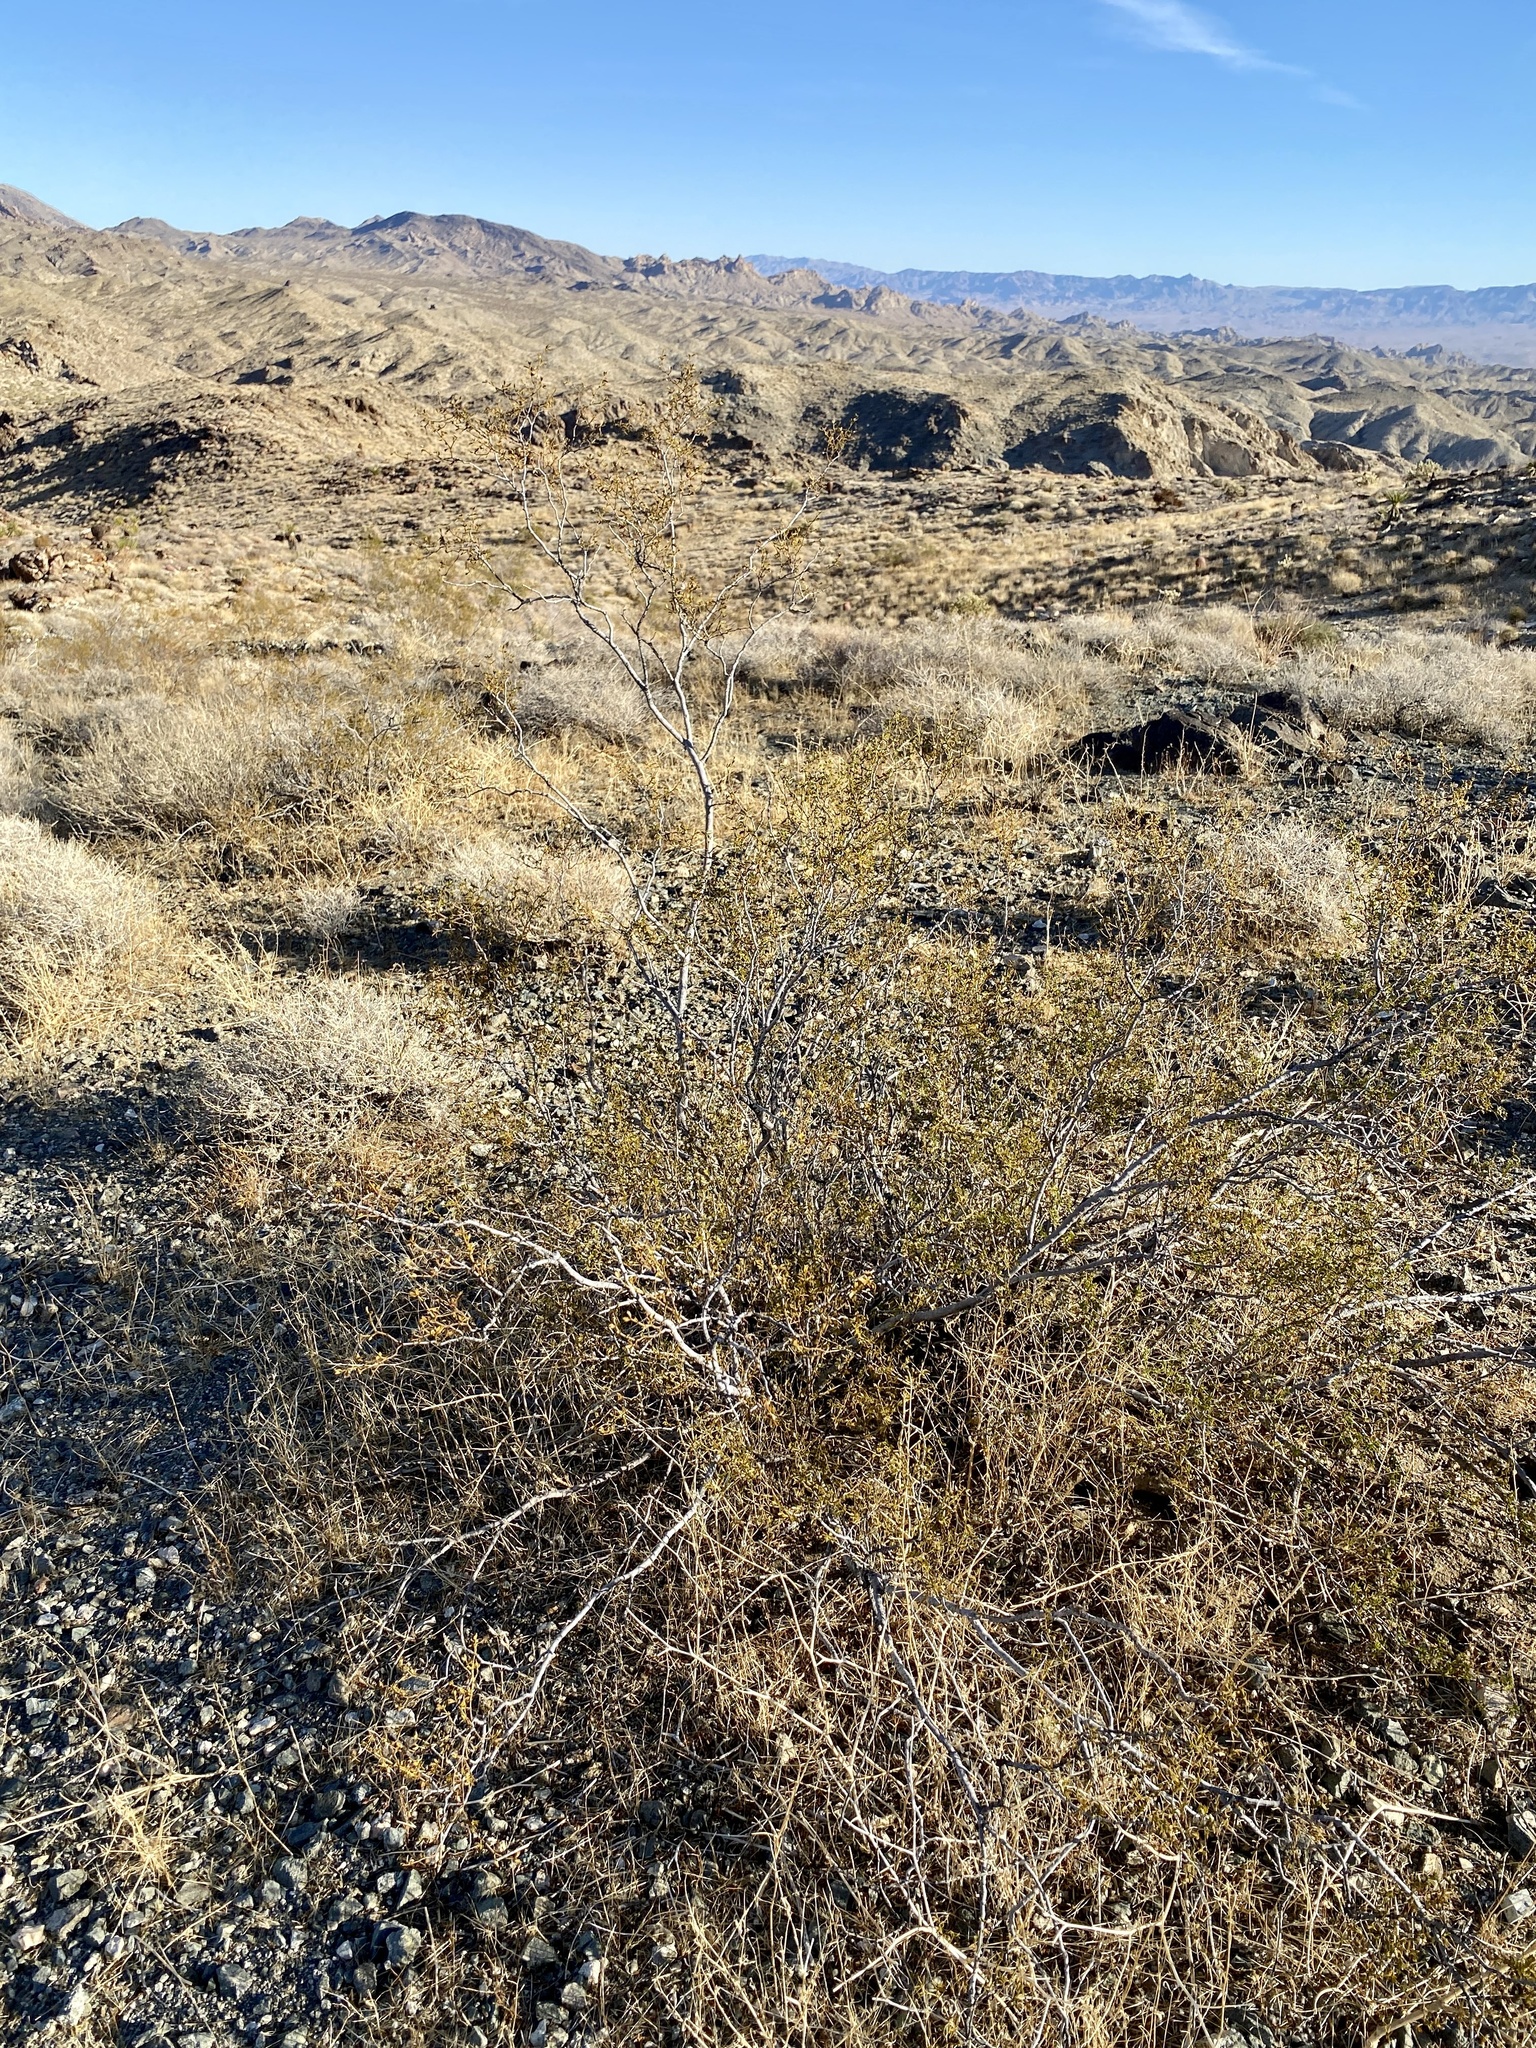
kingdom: Plantae
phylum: Tracheophyta
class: Magnoliopsida
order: Zygophyllales
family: Zygophyllaceae
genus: Larrea
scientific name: Larrea tridentata
